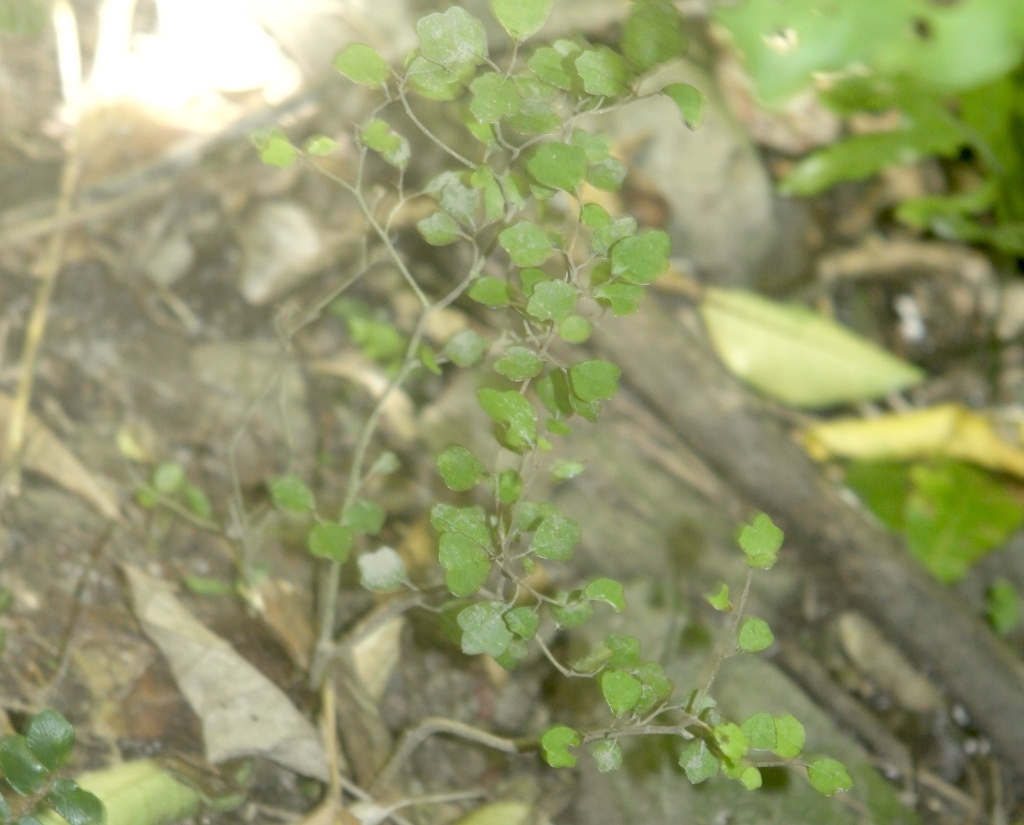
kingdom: Plantae
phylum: Tracheophyta
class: Magnoliopsida
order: Apiales
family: Pennantiaceae
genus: Pennantia
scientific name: Pennantia corymbosa
